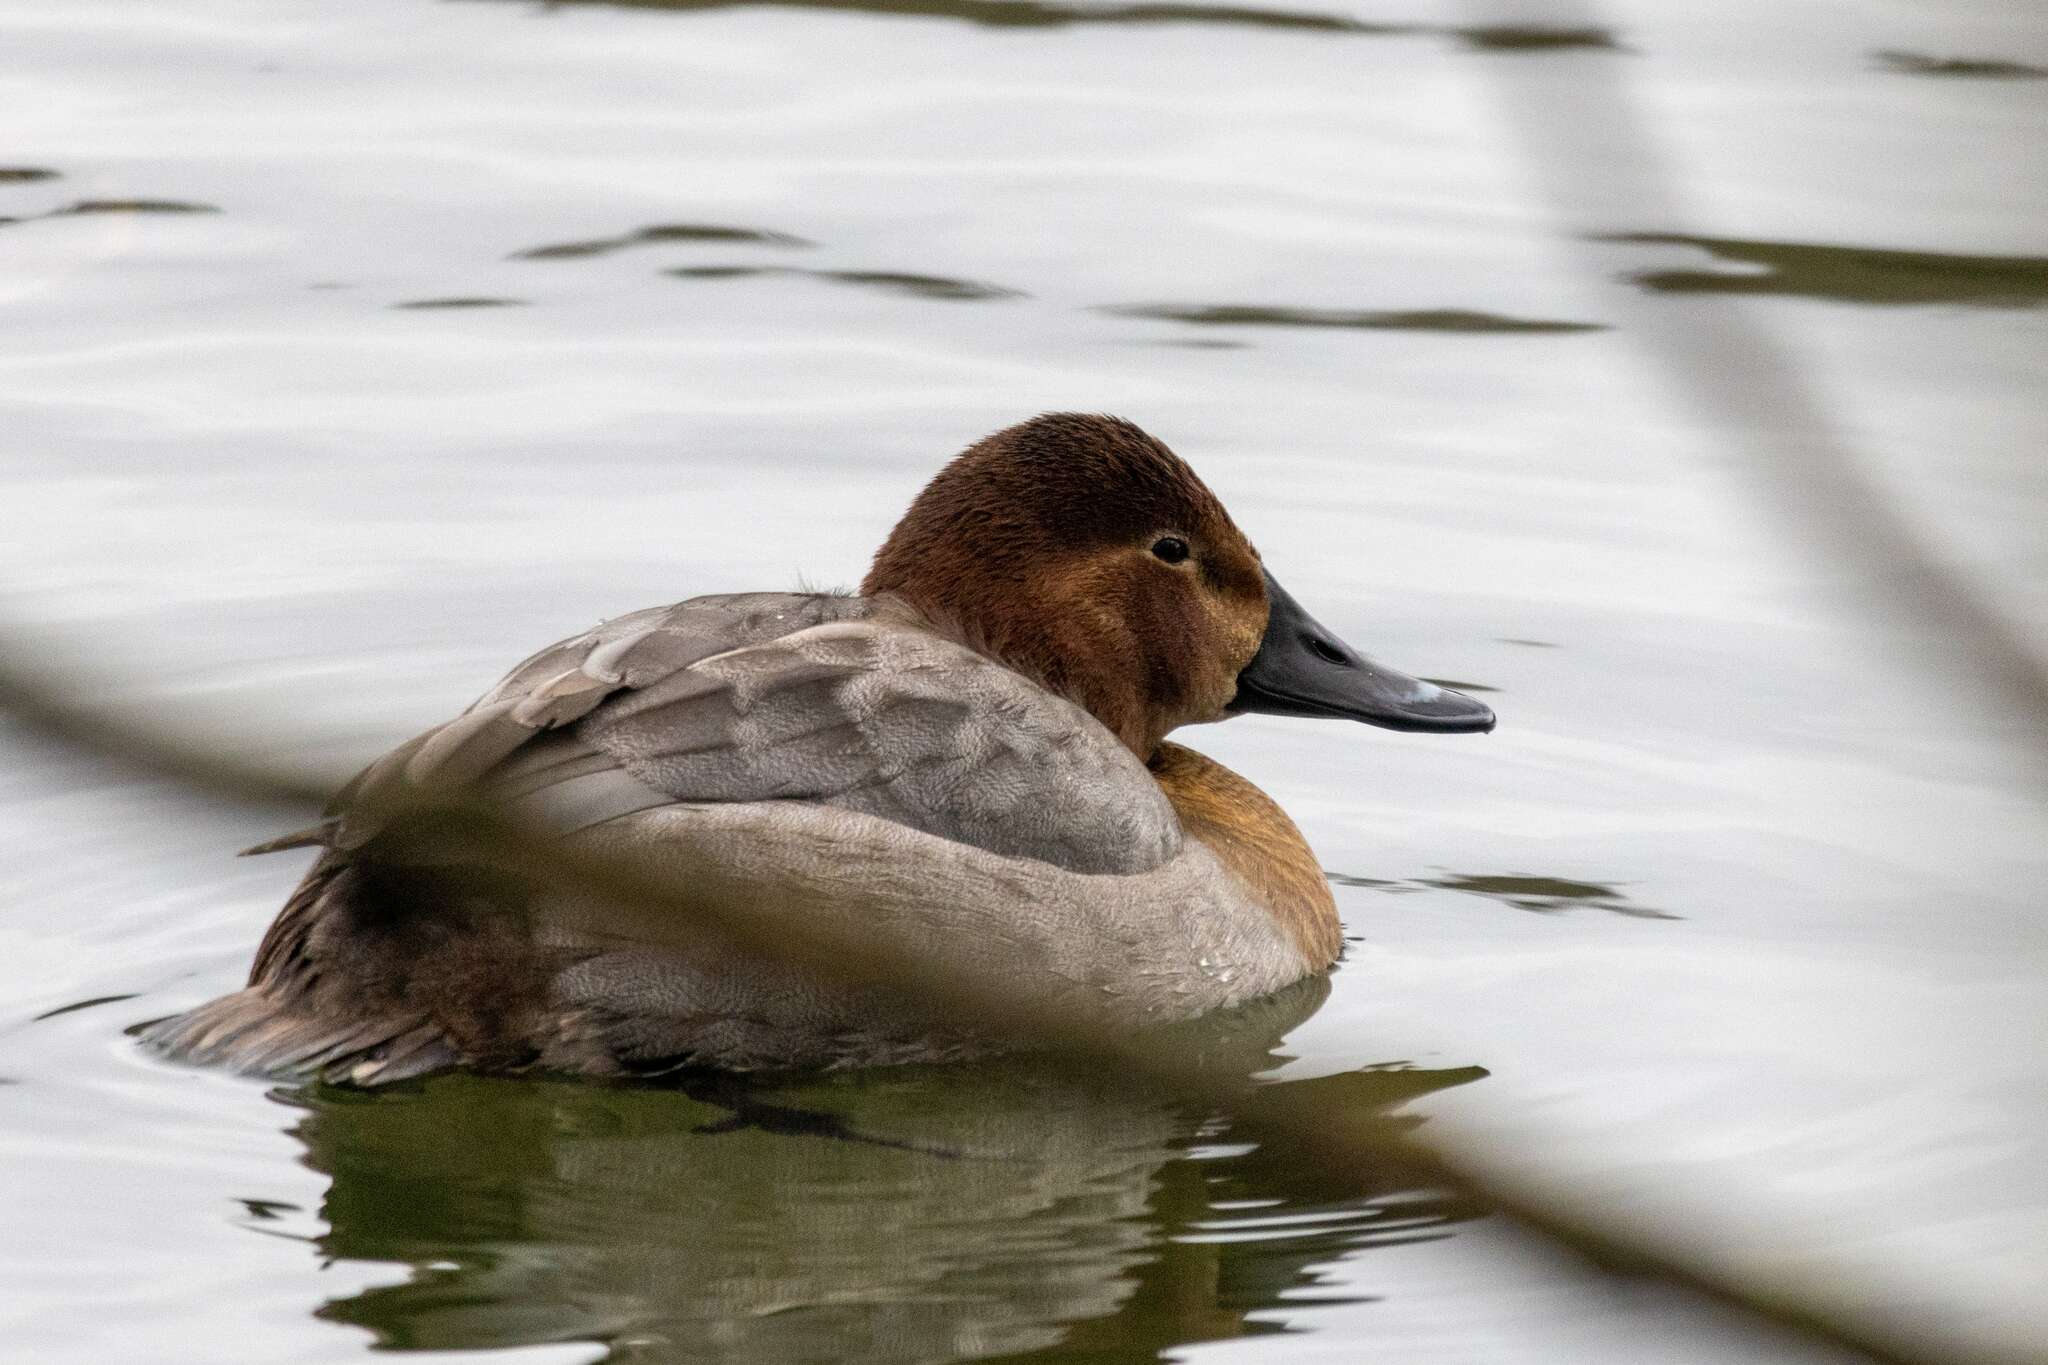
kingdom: Animalia
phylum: Chordata
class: Aves
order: Anseriformes
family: Anatidae
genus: Aythya
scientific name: Aythya ferina
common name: Common pochard
